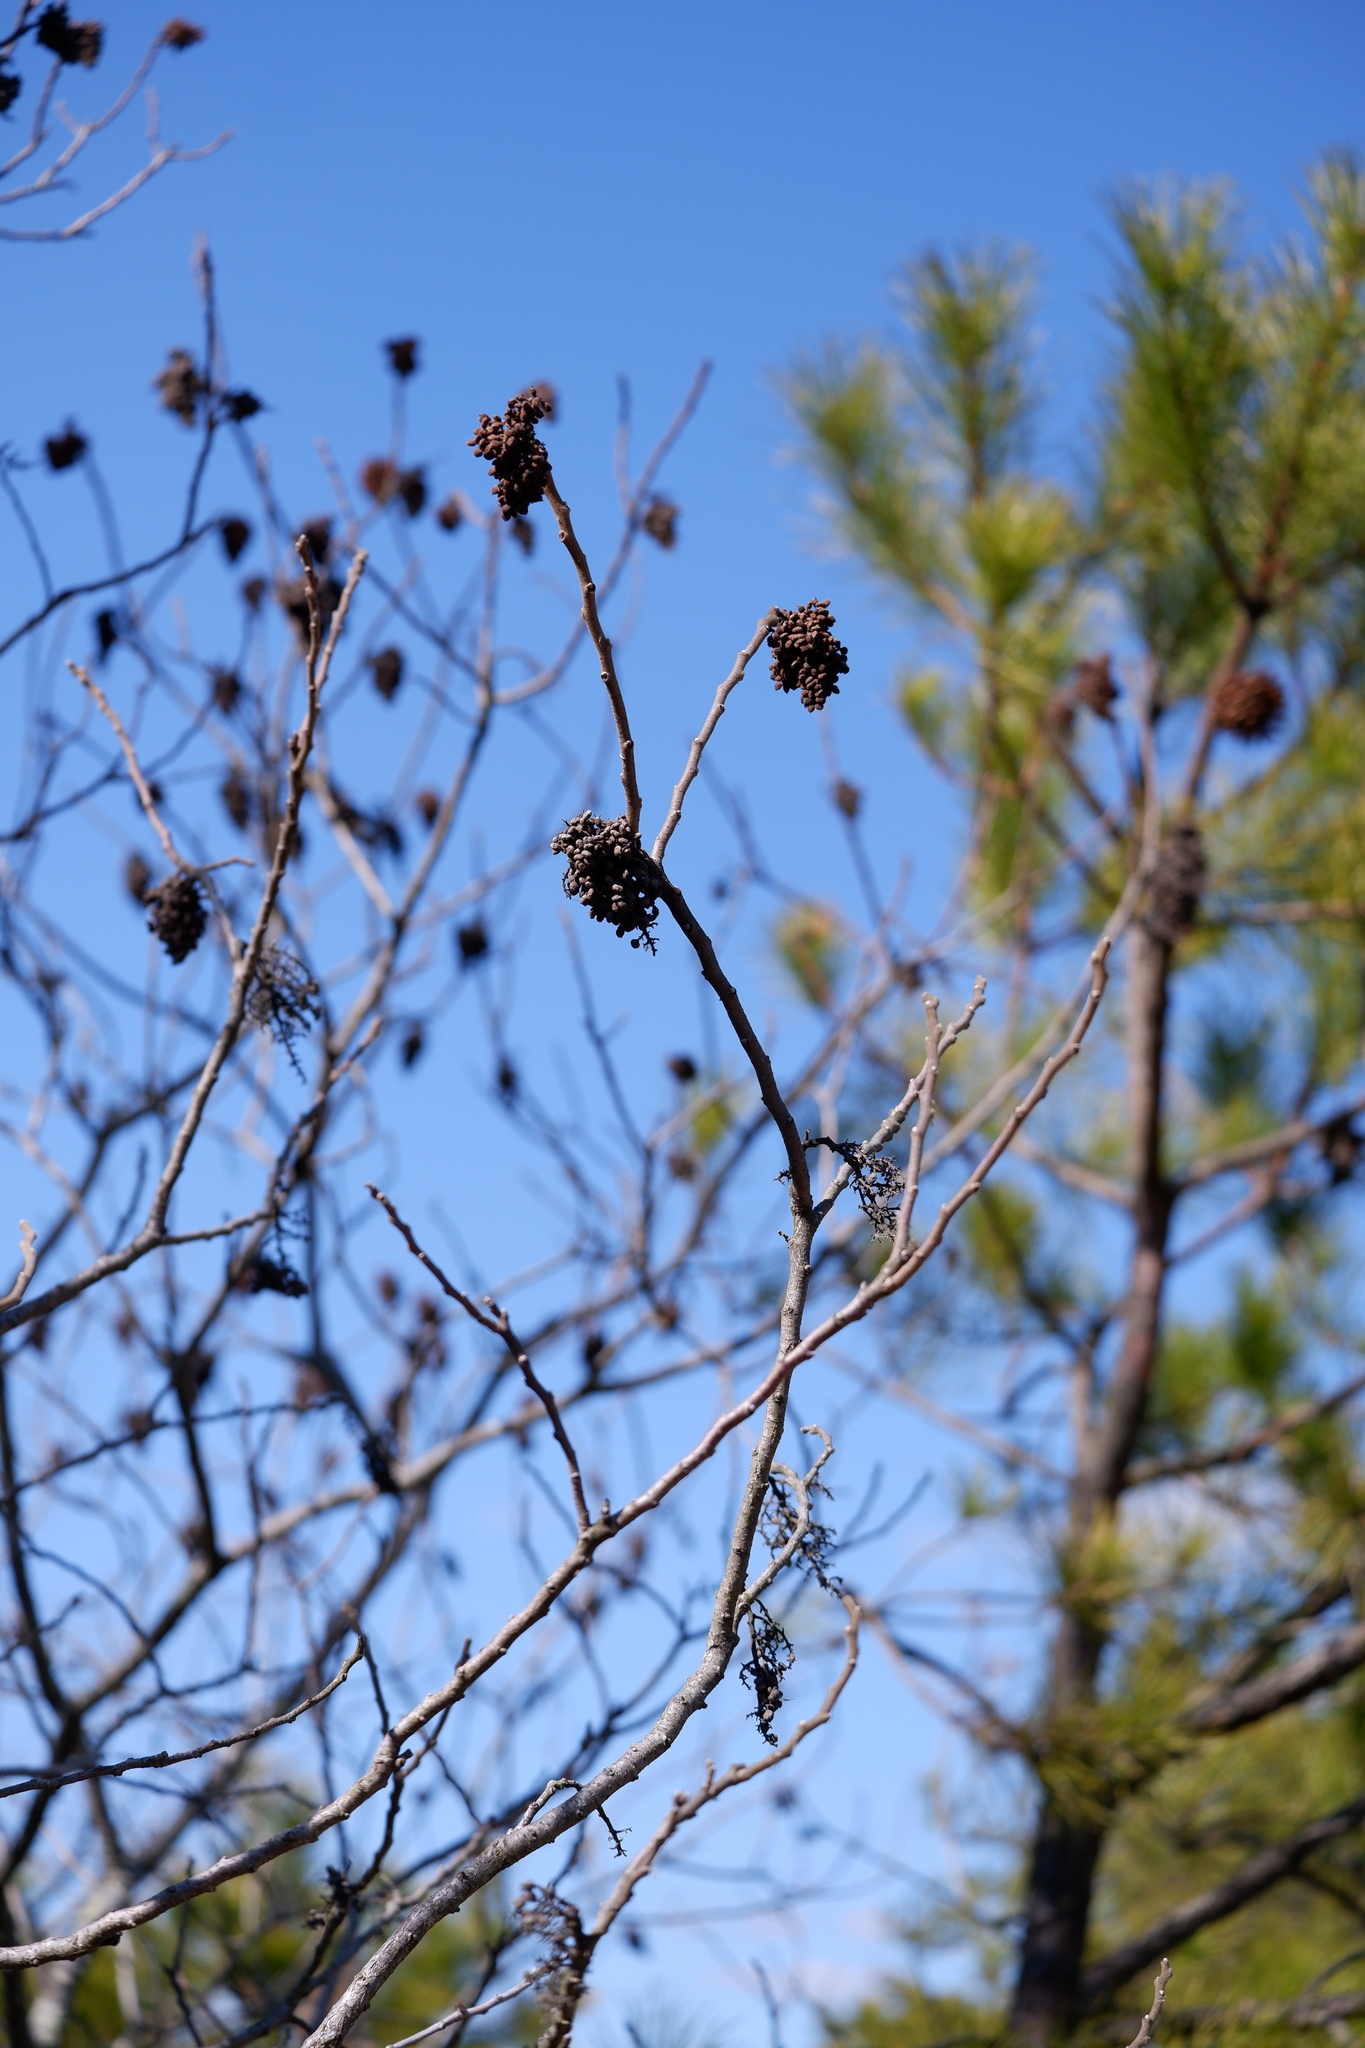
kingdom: Plantae
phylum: Tracheophyta
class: Magnoliopsida
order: Sapindales
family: Anacardiaceae
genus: Rhus
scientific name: Rhus copallina
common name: Shining sumac
